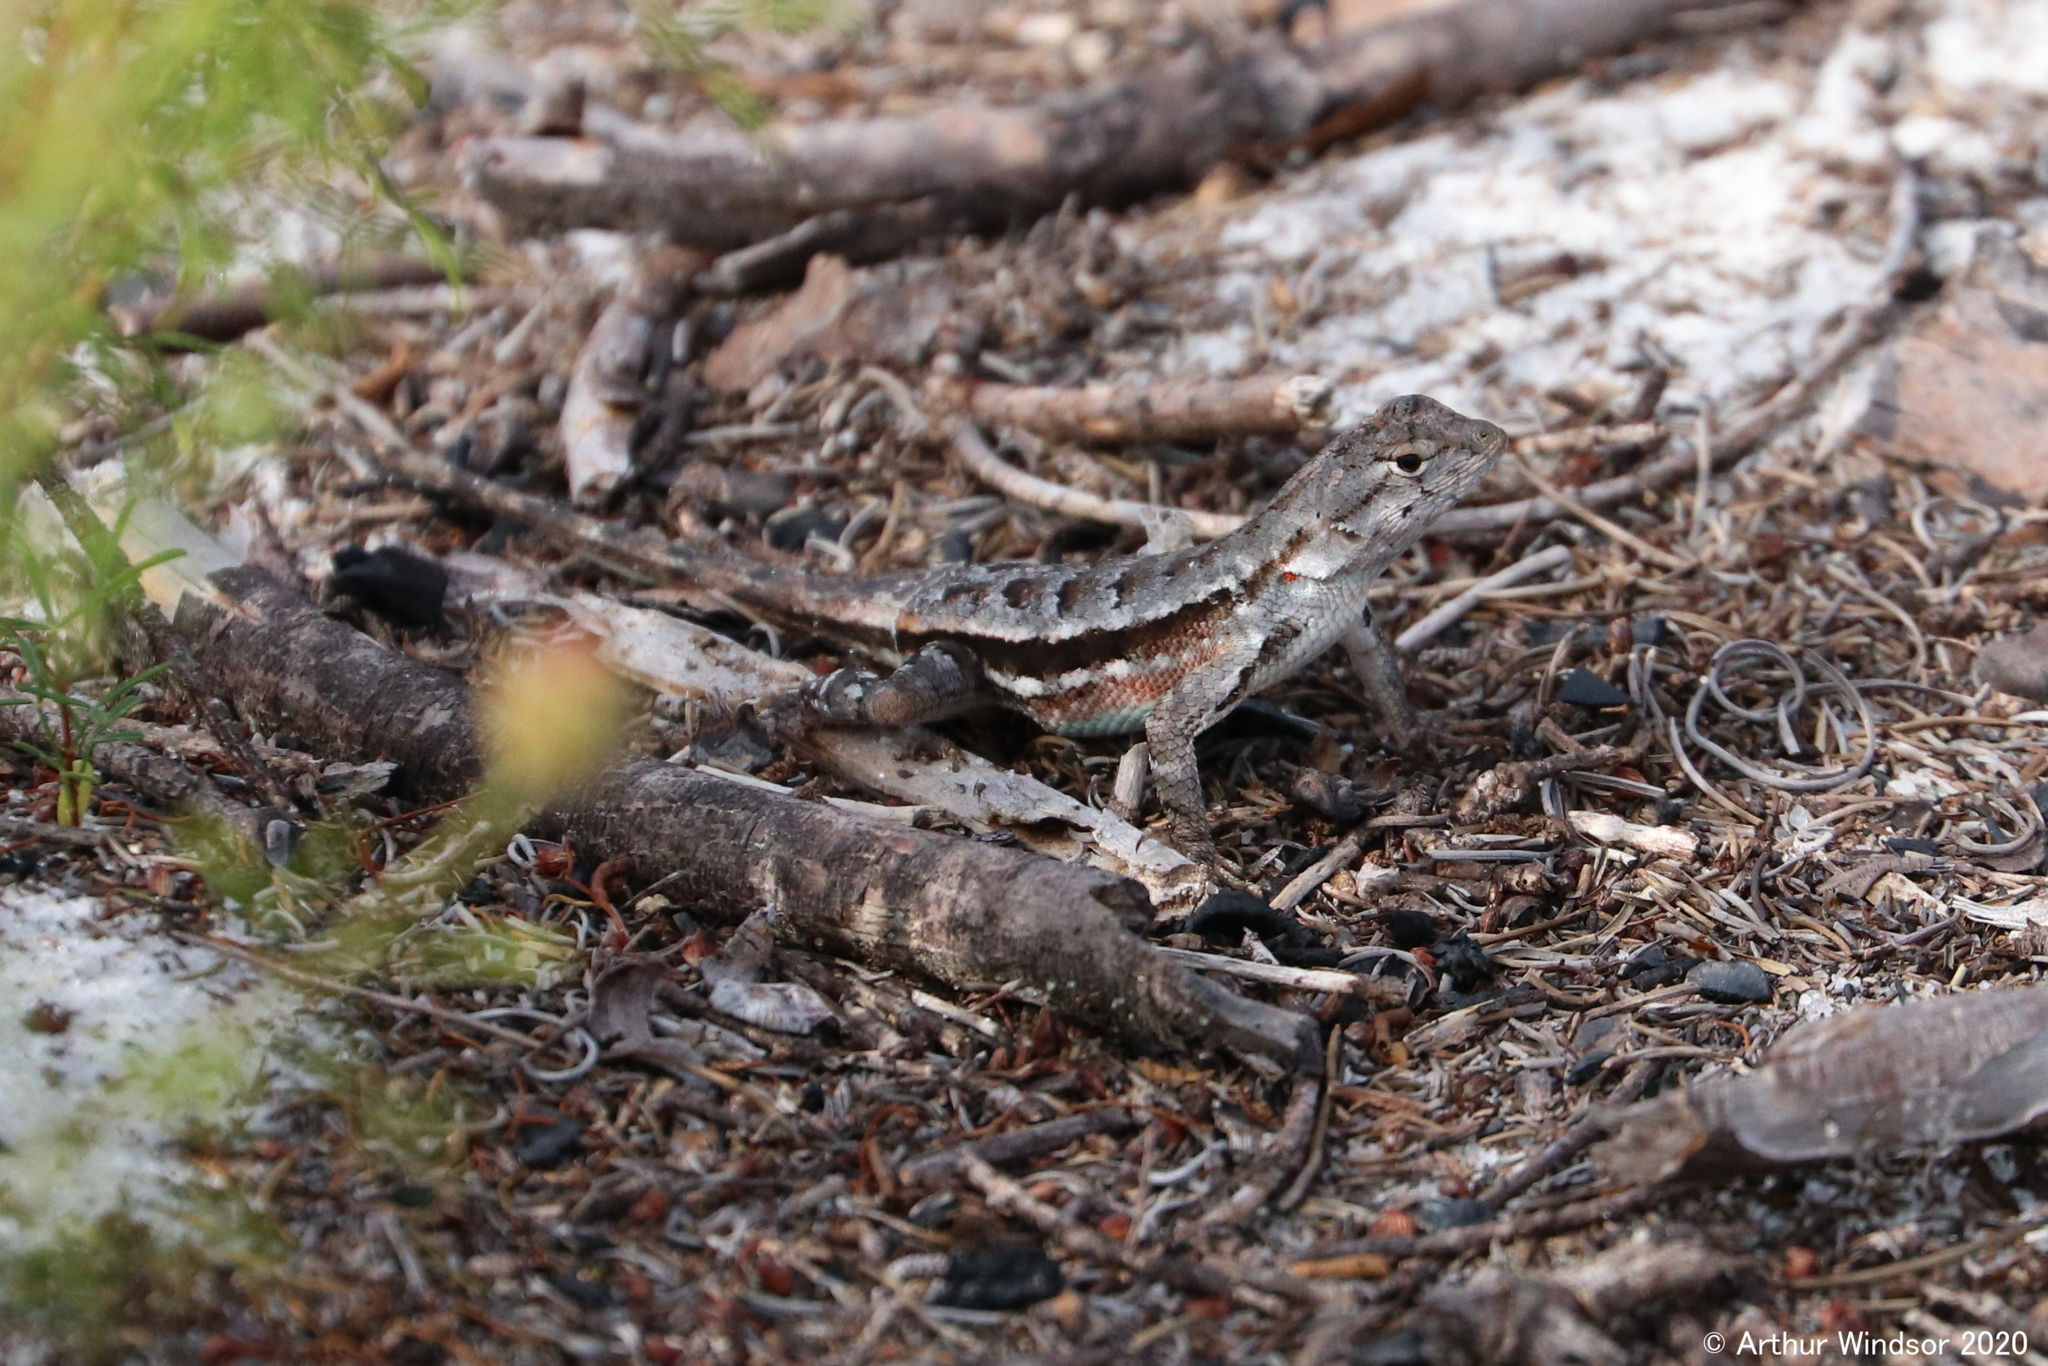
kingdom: Animalia
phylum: Chordata
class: Squamata
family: Phrynosomatidae
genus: Sceloporus
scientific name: Sceloporus woodi
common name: Florida scrub lizard
